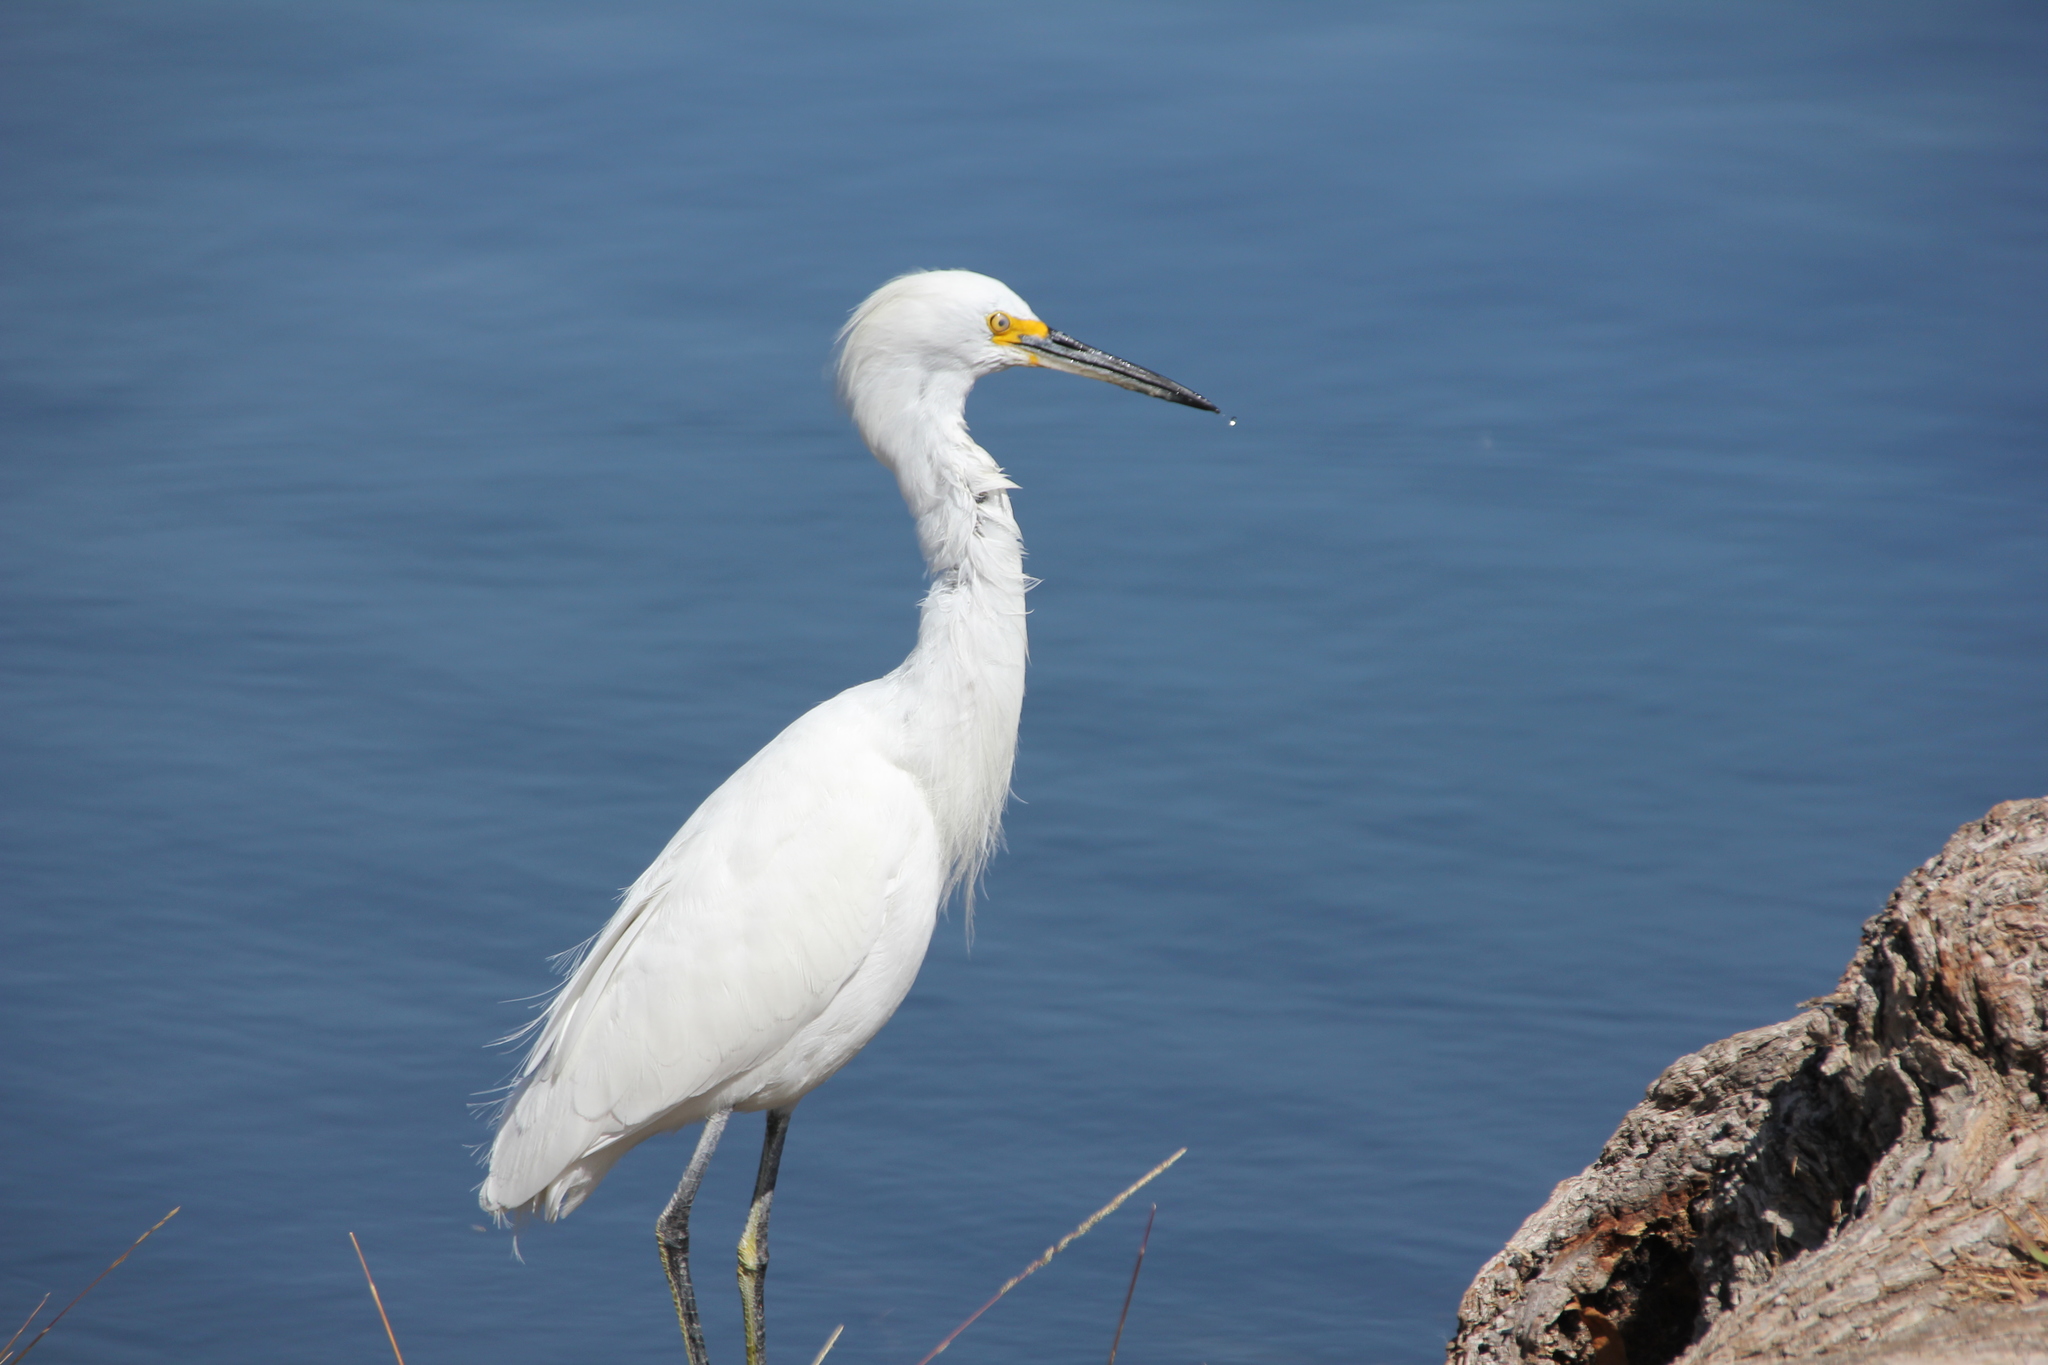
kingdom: Animalia
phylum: Chordata
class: Aves
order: Pelecaniformes
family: Ardeidae
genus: Egretta
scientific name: Egretta thula
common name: Snowy egret
